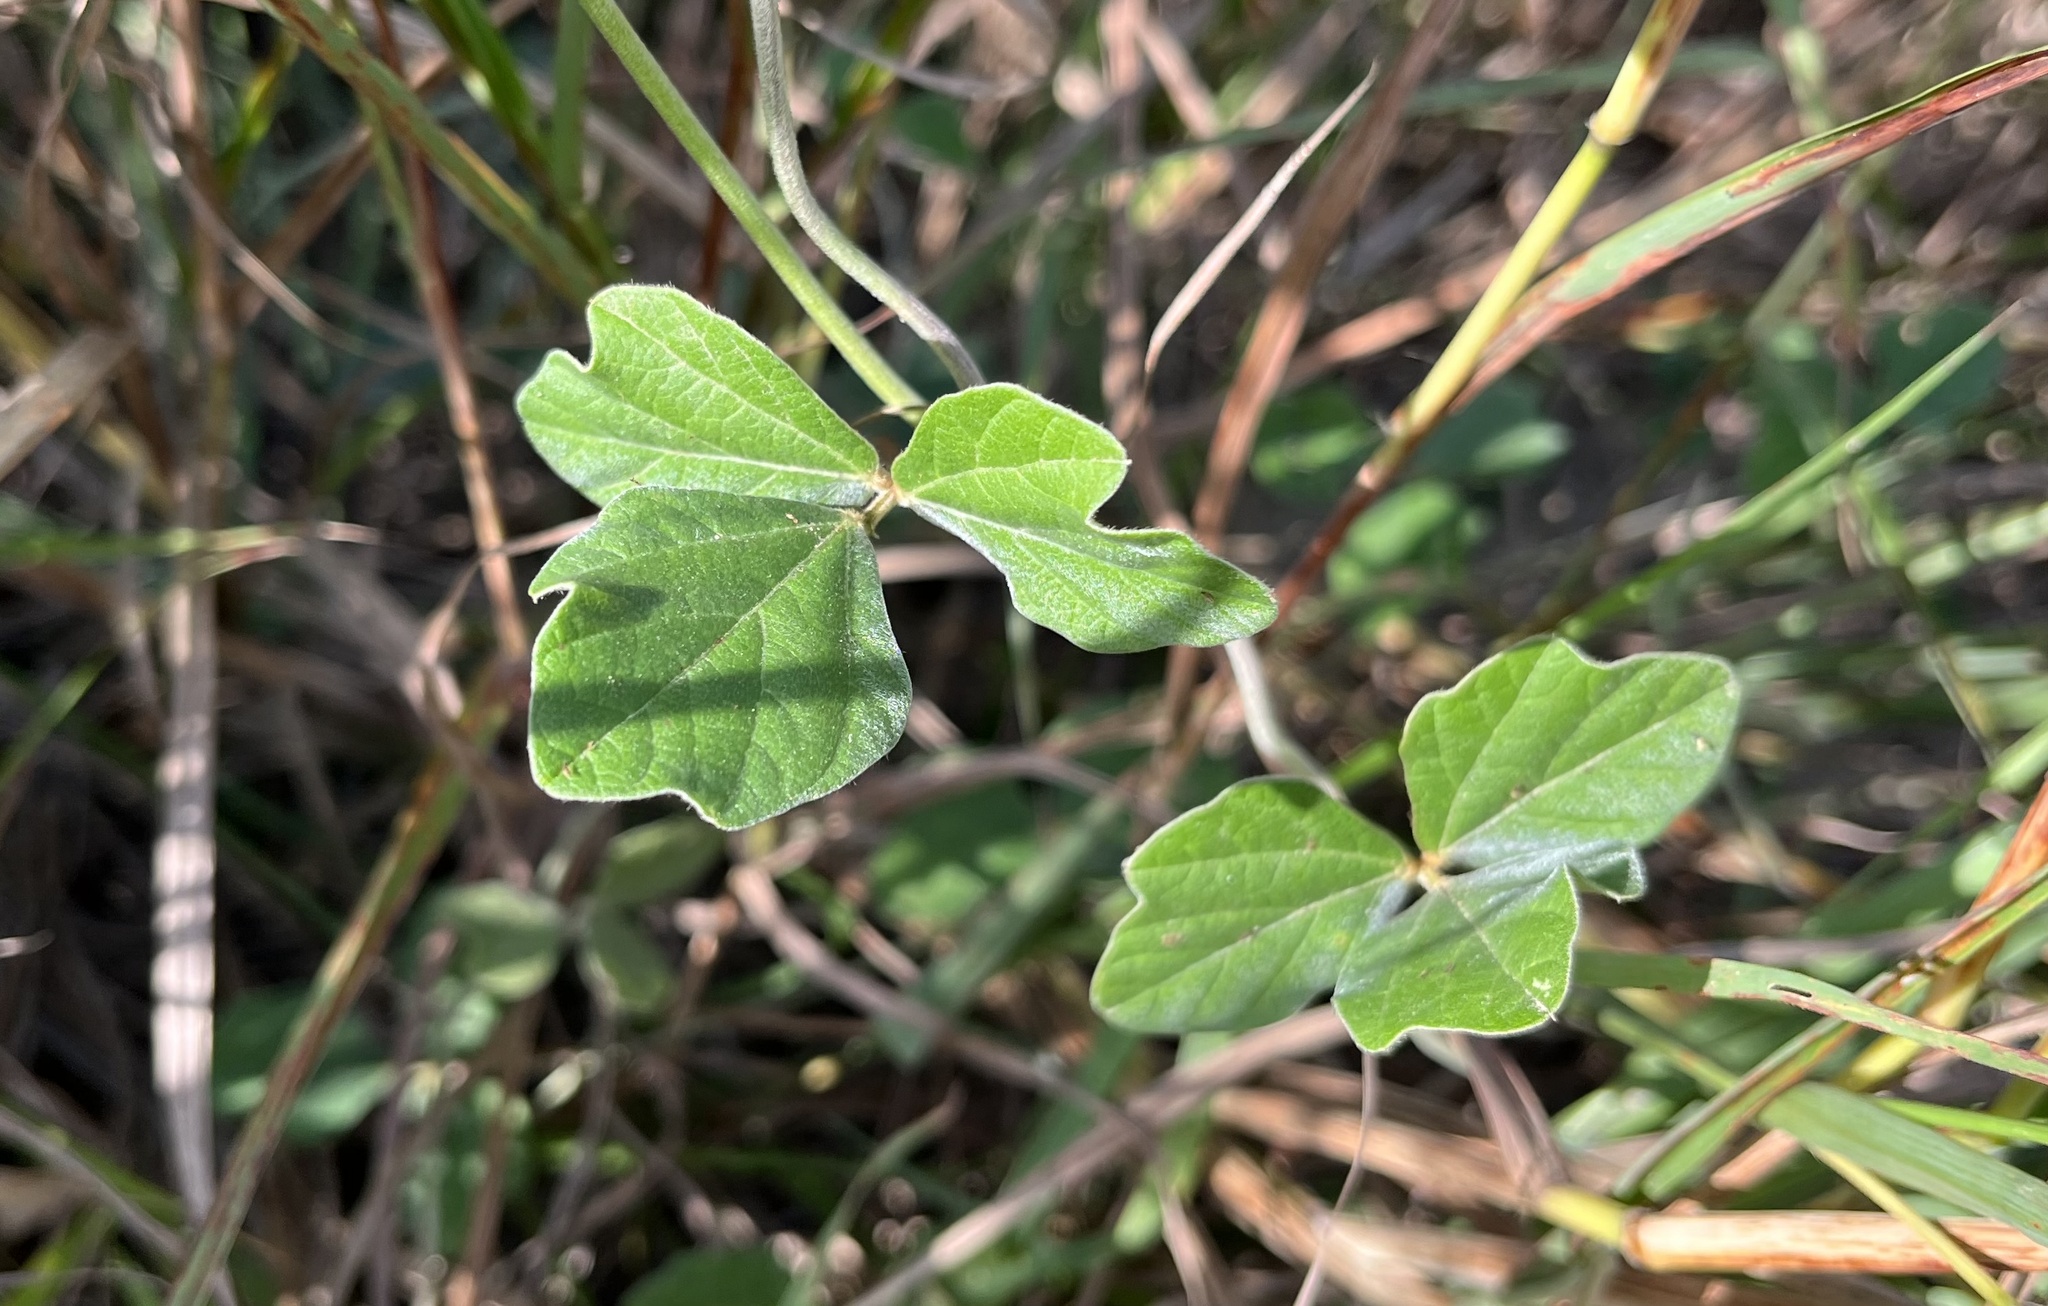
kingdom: Plantae
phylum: Tracheophyta
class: Magnoliopsida
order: Fabales
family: Fabaceae
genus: Macroptilium
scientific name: Macroptilium atropurpureum
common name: Purple bushbean
